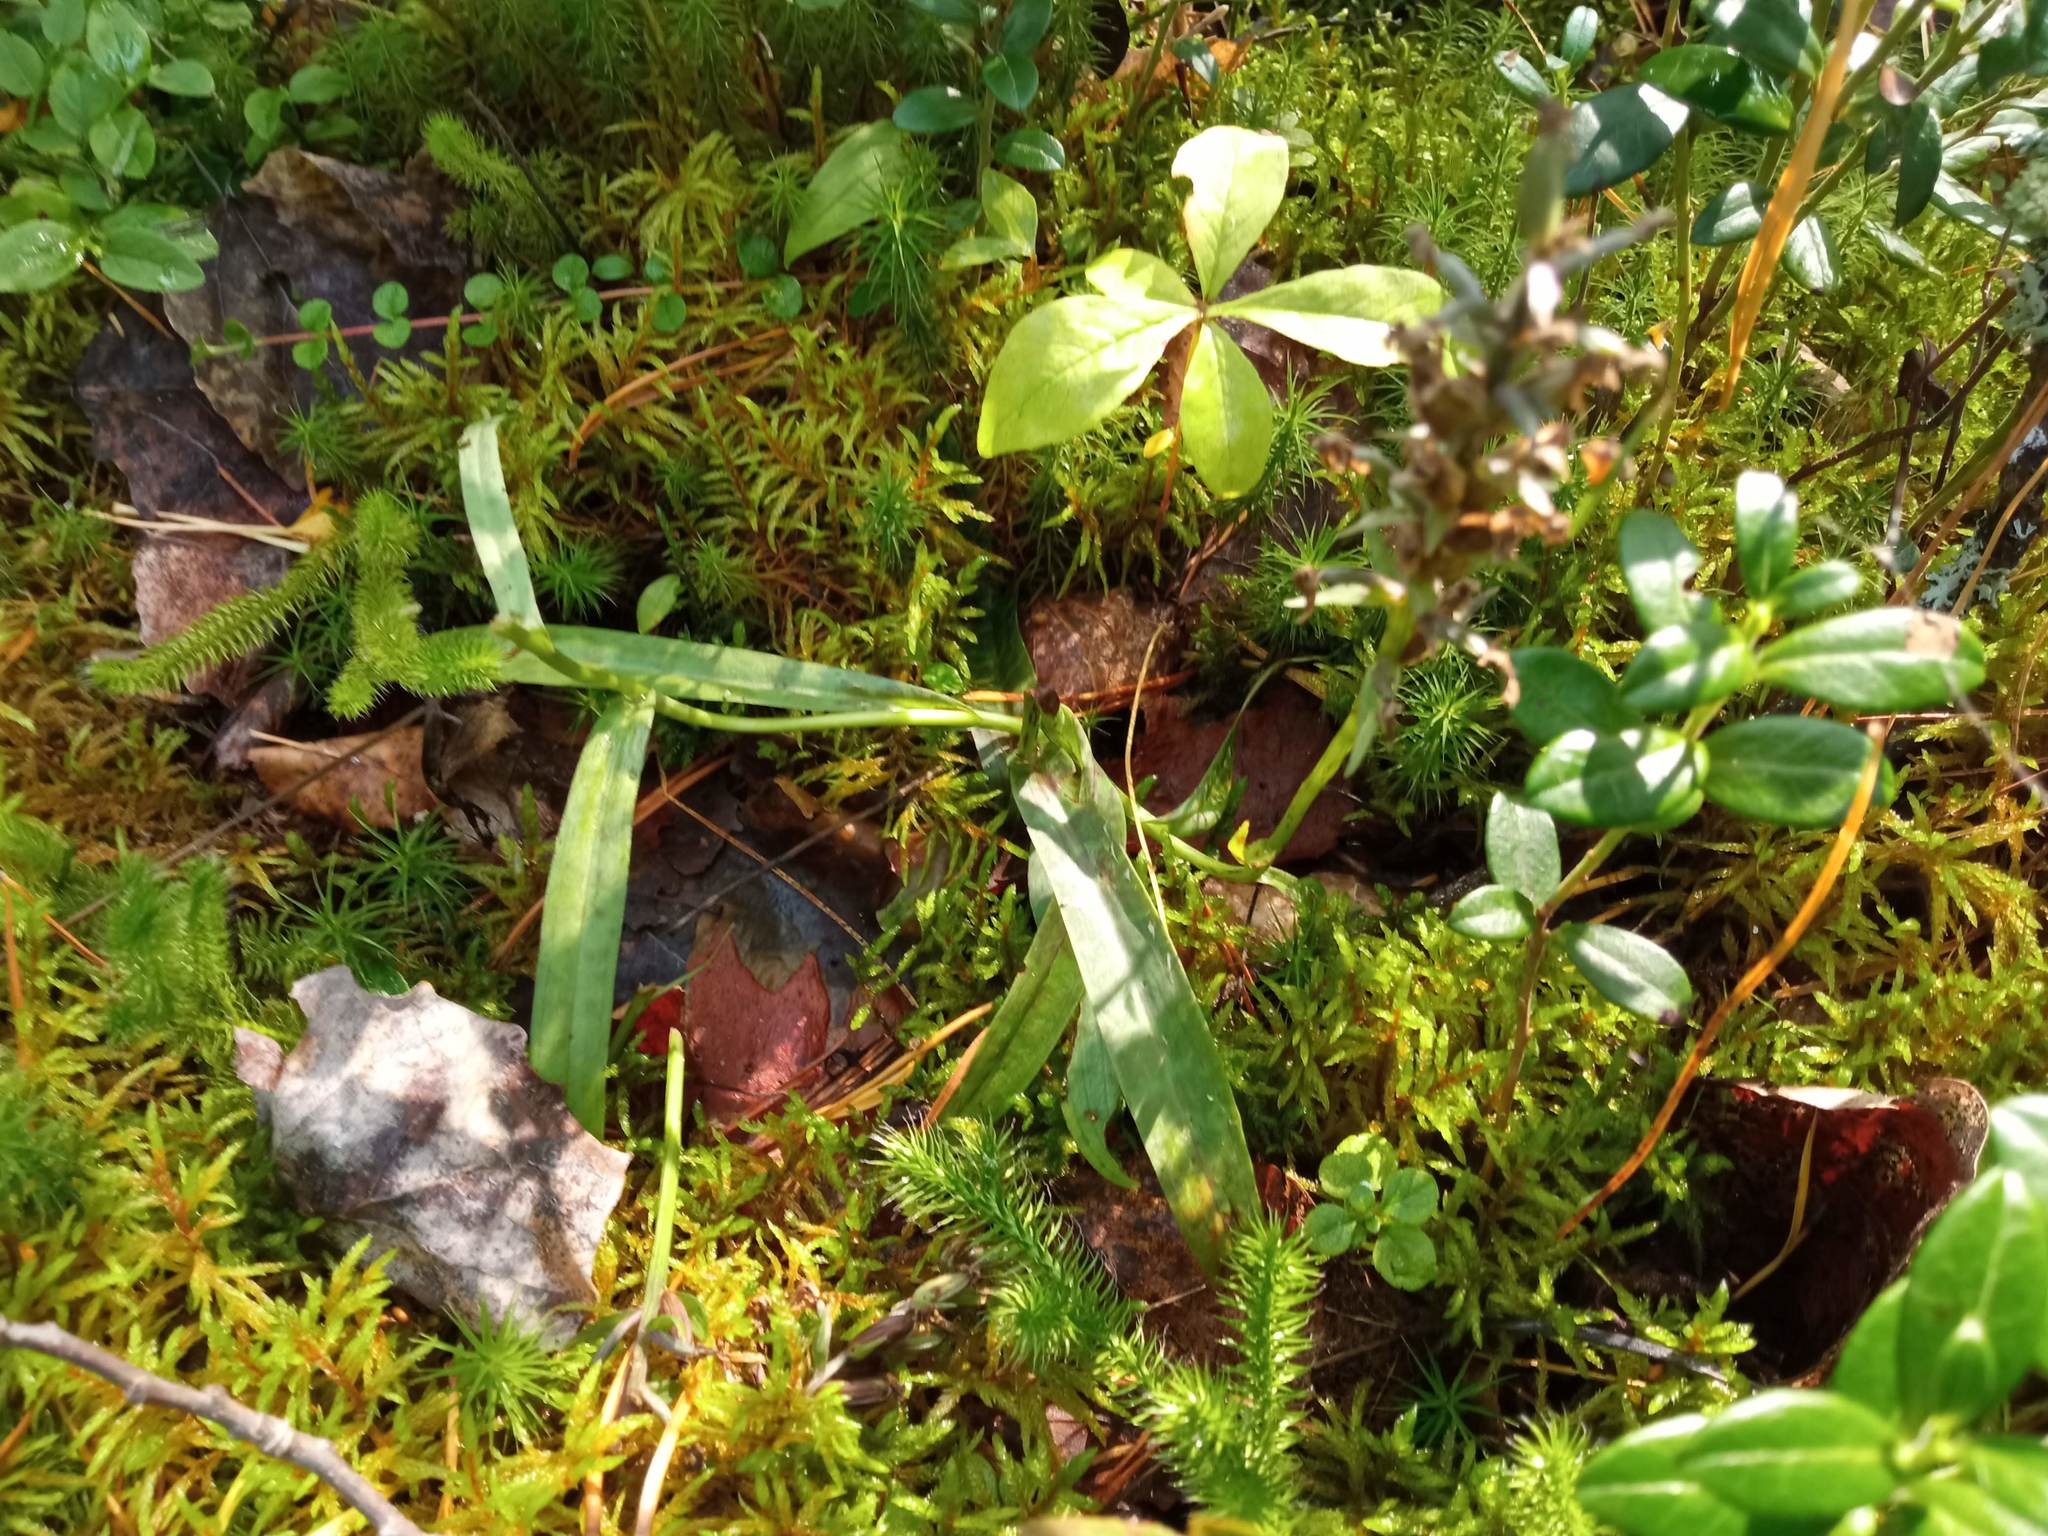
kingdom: Plantae
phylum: Tracheophyta
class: Magnoliopsida
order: Ericales
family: Primulaceae
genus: Lysimachia
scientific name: Lysimachia europaea
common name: Arctic starflower
